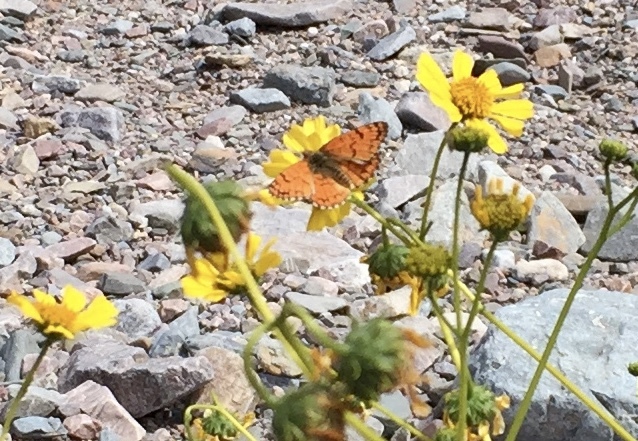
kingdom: Animalia
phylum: Arthropoda
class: Insecta
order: Lepidoptera
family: Nymphalidae
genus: Chlosyne
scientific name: Chlosyne acastus
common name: Sagebrush checkerspot
